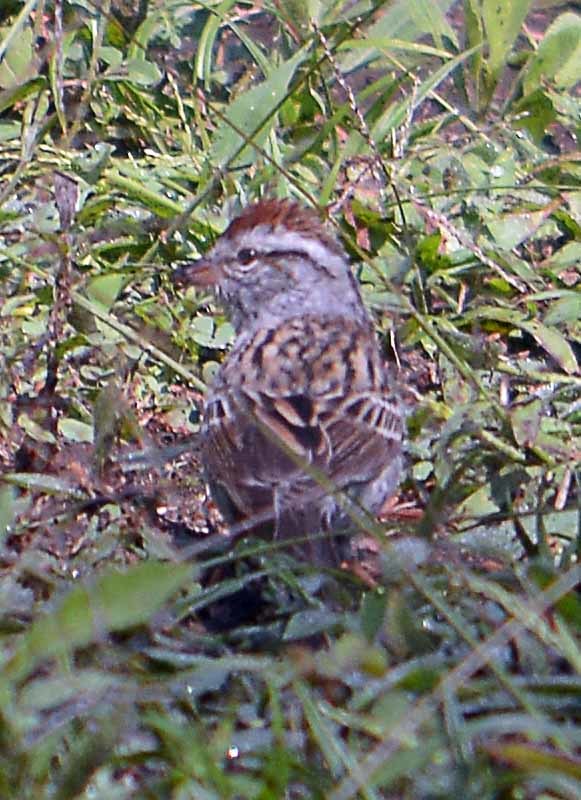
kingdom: Animalia
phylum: Chordata
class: Aves
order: Passeriformes
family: Passerellidae
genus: Spizella
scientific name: Spizella passerina
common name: Chipping sparrow
